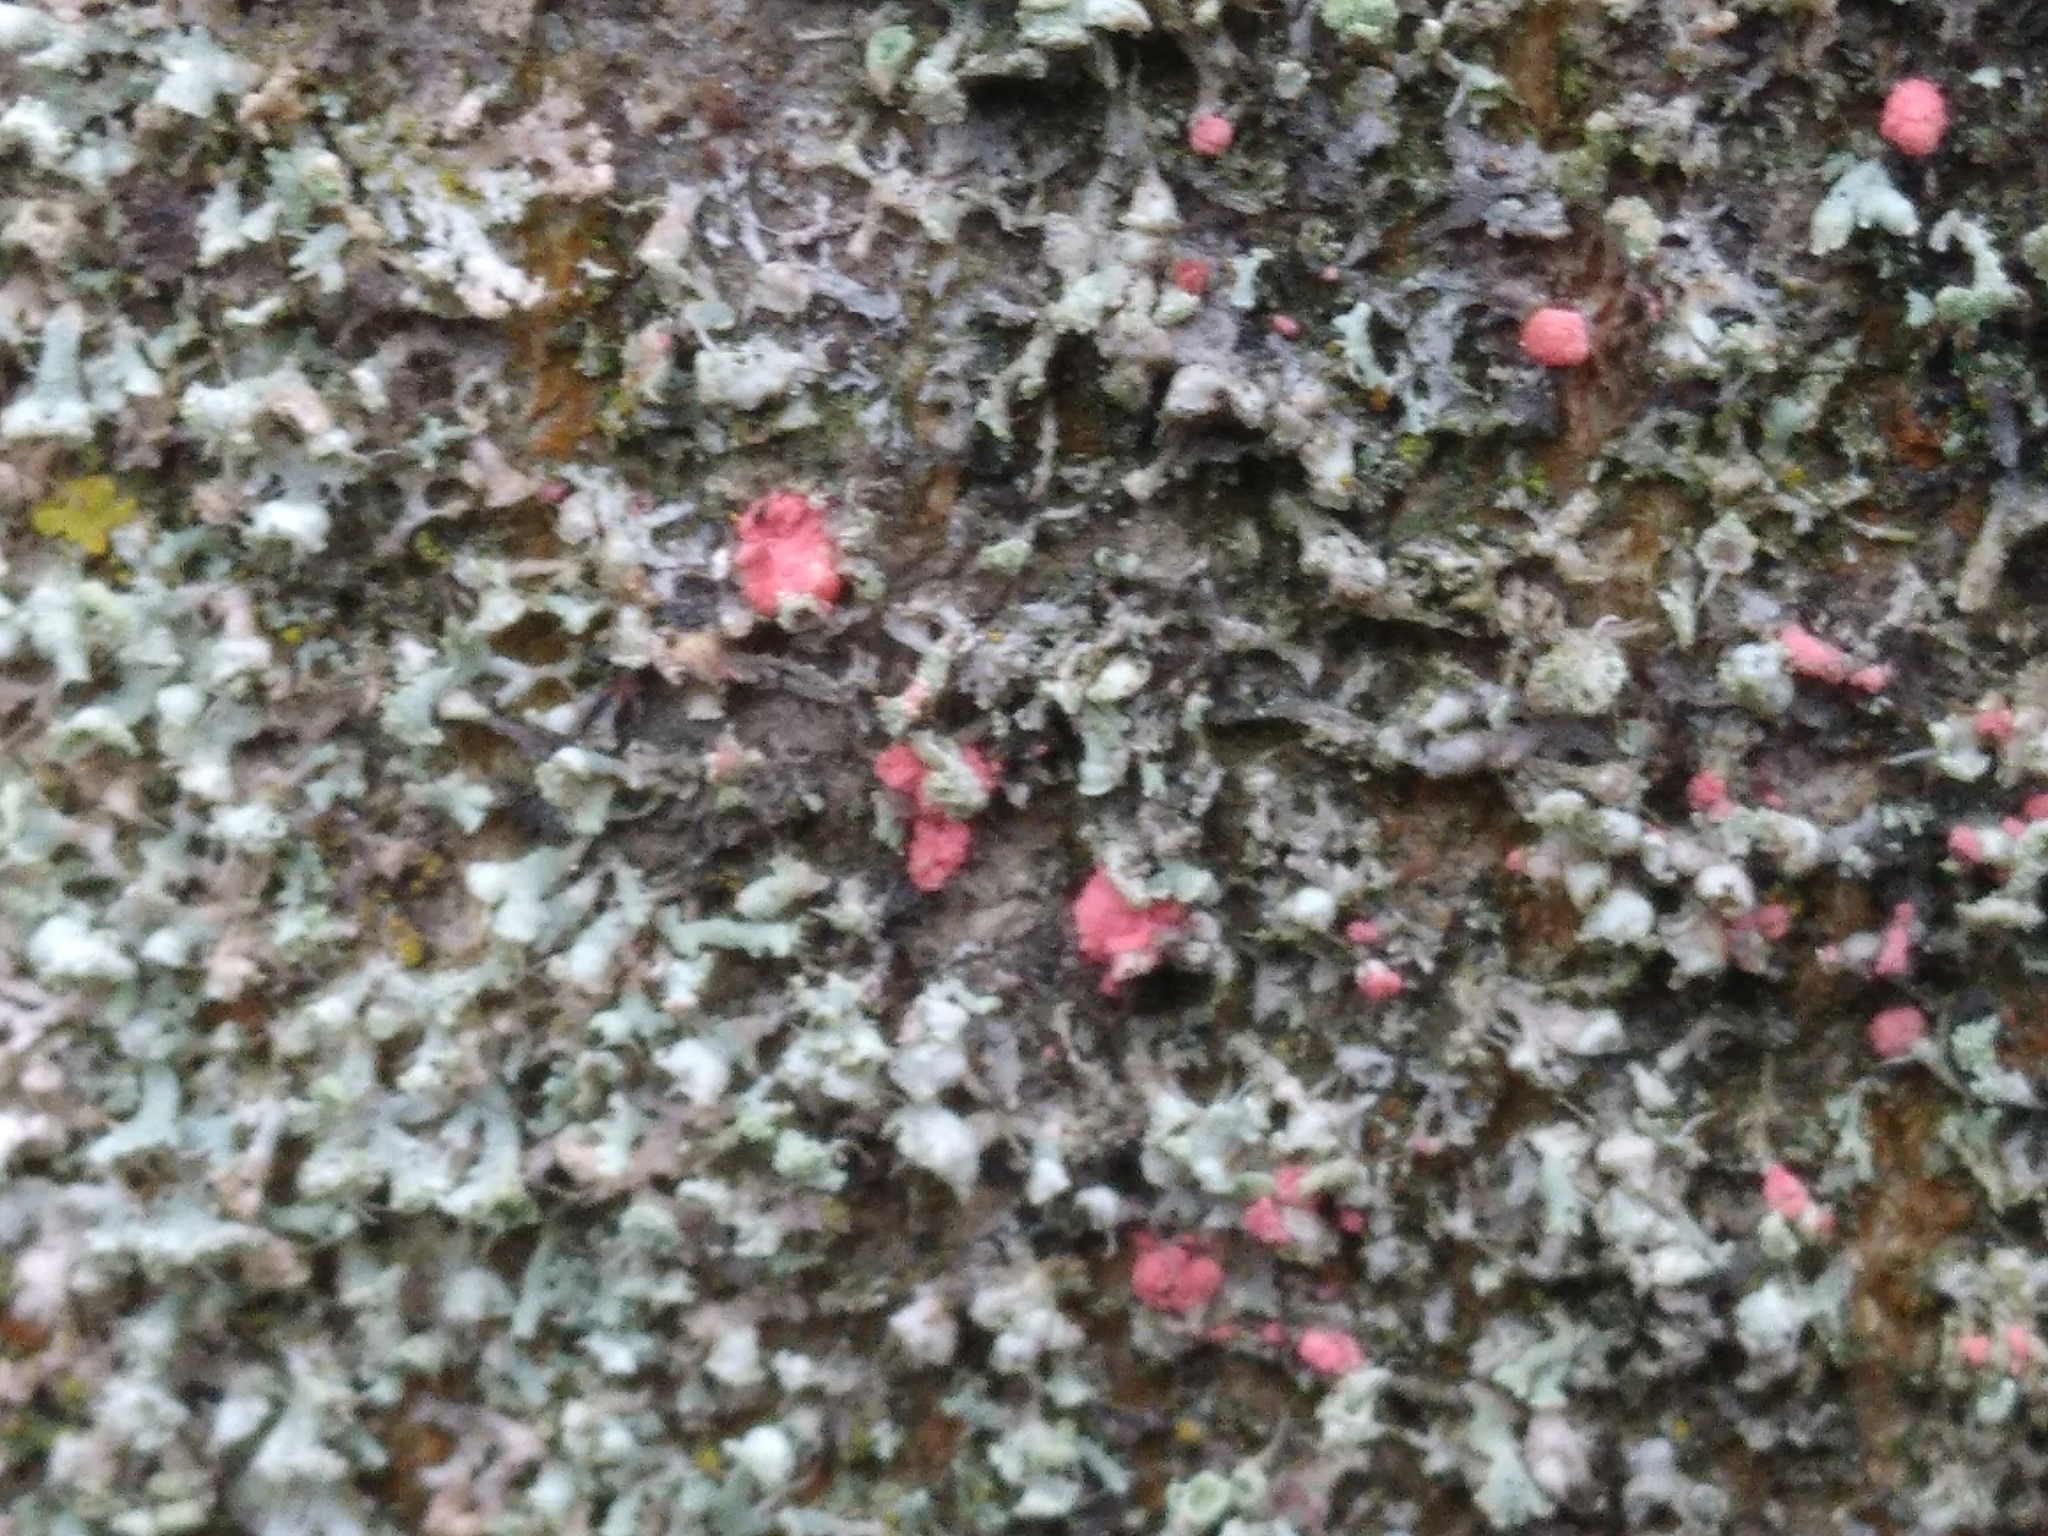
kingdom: Fungi
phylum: Ascomycota
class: Sordariomycetes
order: Hypocreales
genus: Illosporiopsis
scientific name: Illosporiopsis christiansenii
